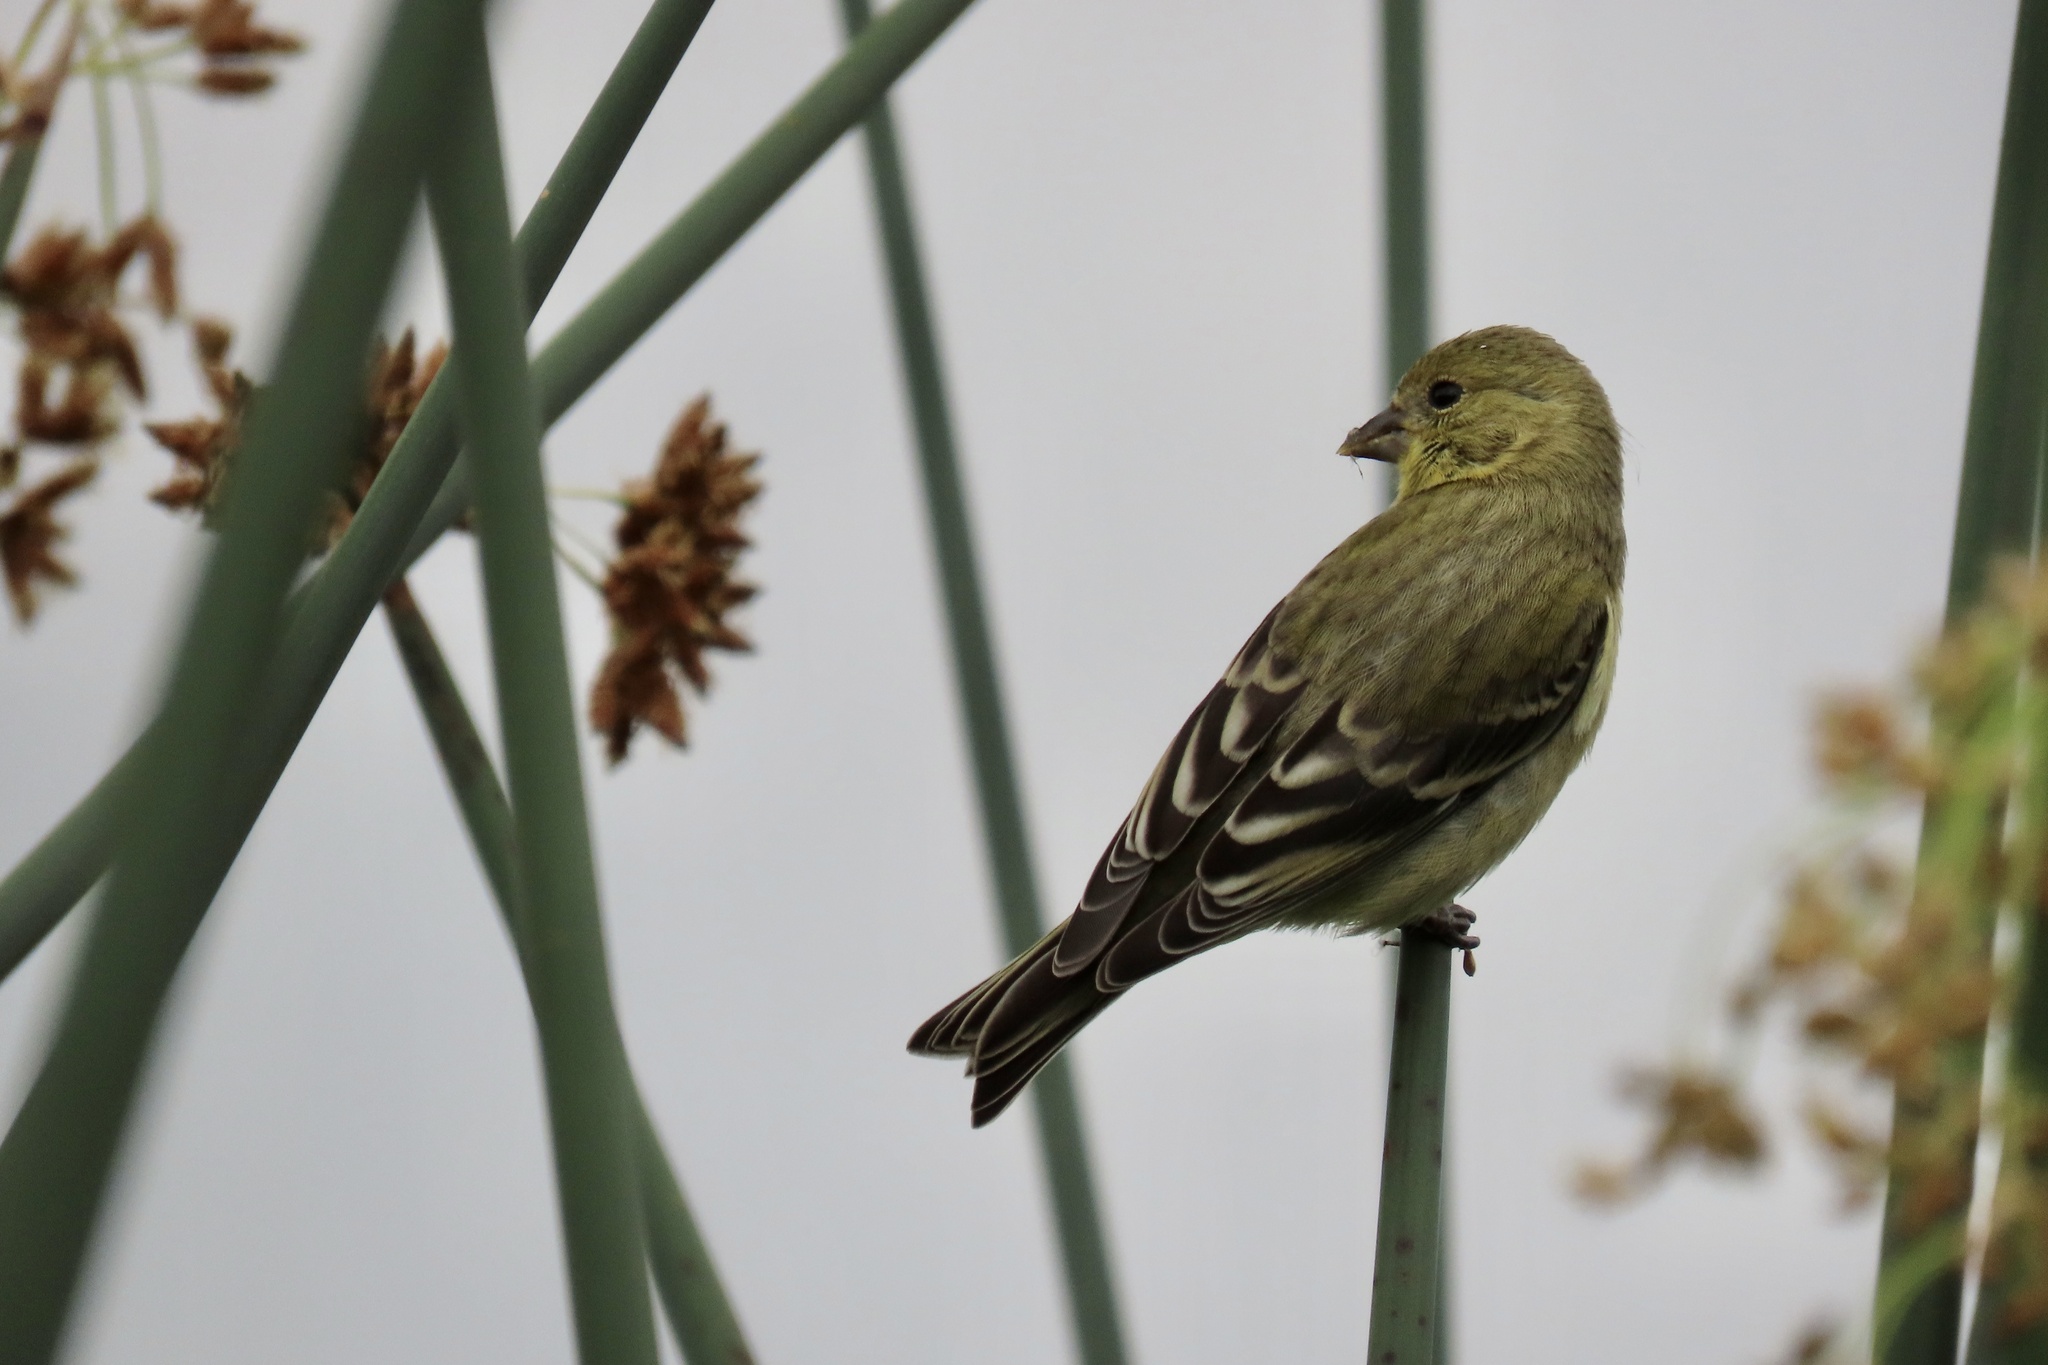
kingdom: Animalia
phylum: Chordata
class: Aves
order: Passeriformes
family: Fringillidae
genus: Spinus
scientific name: Spinus psaltria
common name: Lesser goldfinch
